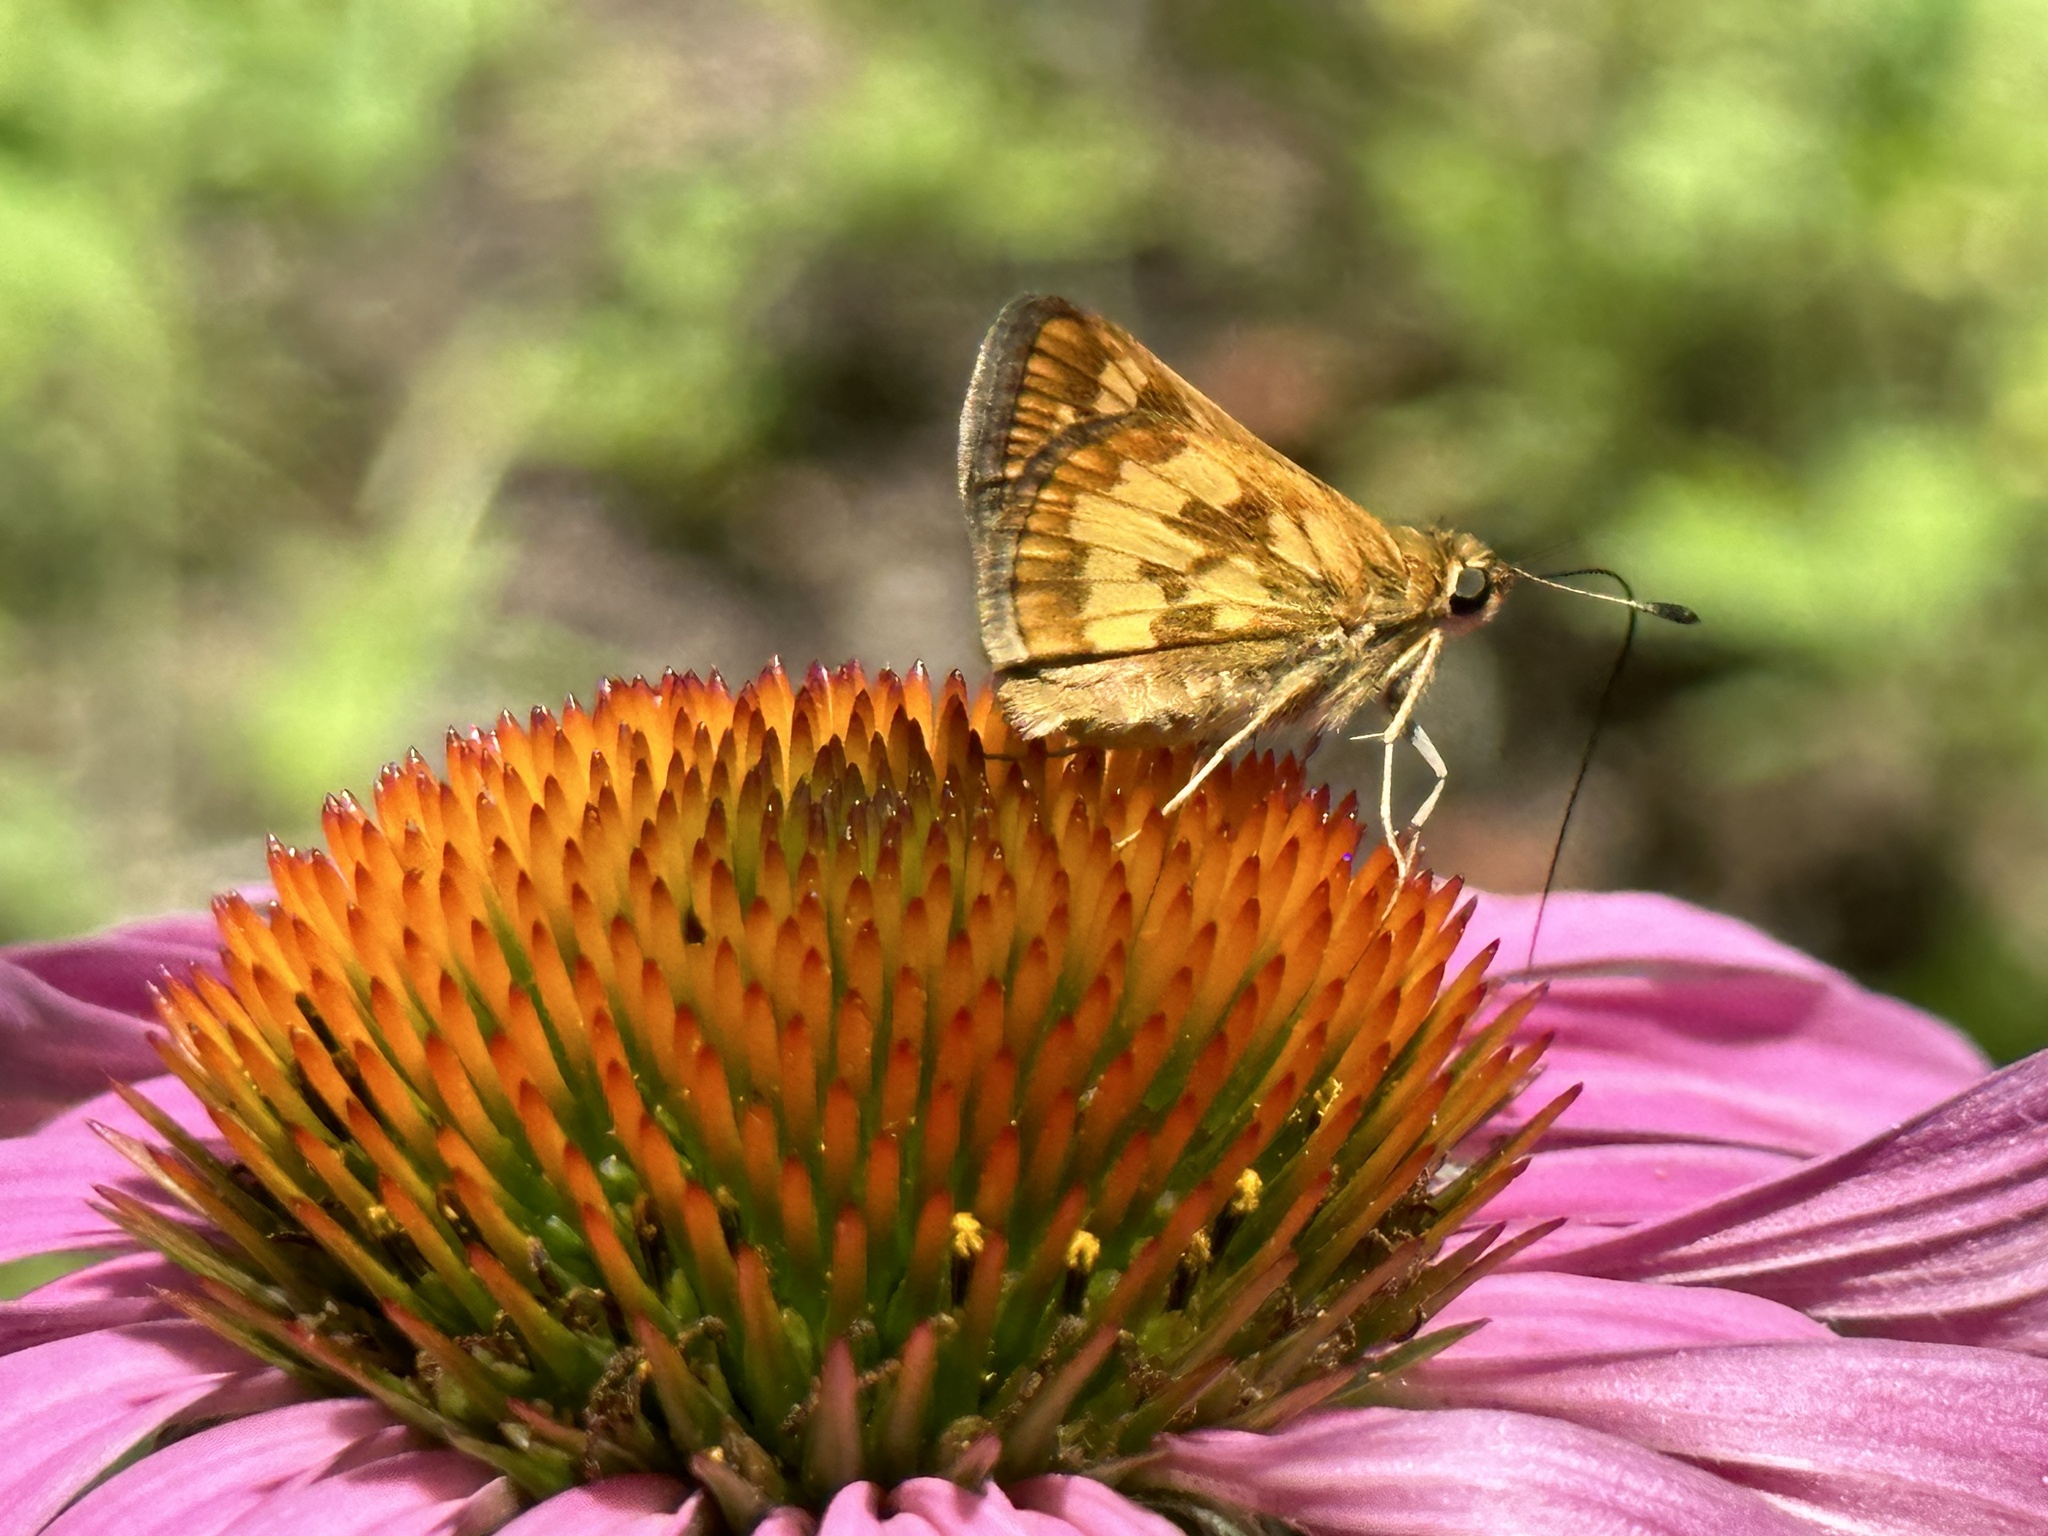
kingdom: Animalia
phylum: Arthropoda
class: Insecta
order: Lepidoptera
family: Hesperiidae
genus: Polites
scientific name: Polites coras
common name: Peck's skipper
